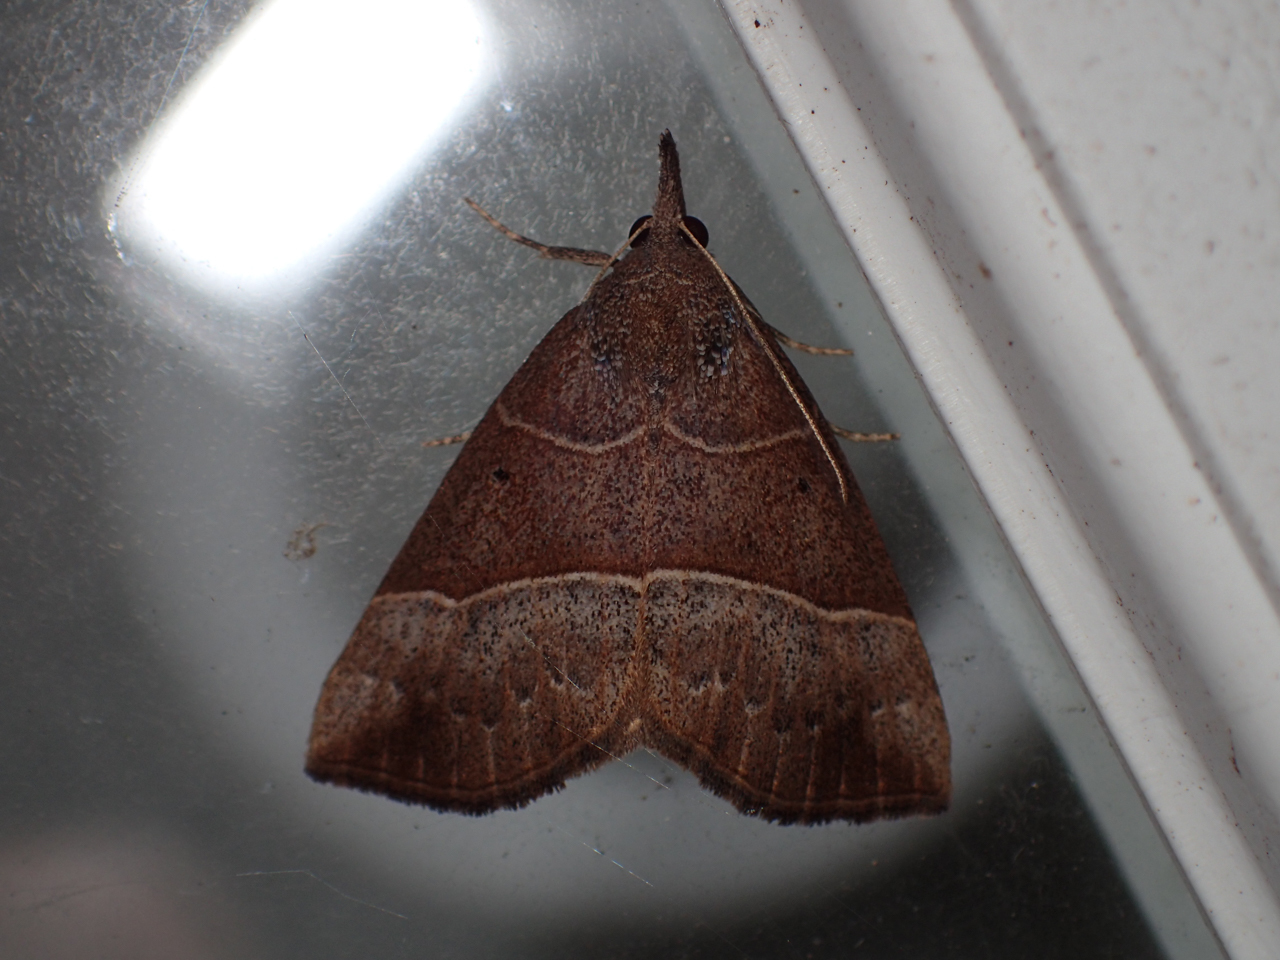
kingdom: Animalia
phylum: Arthropoda
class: Insecta
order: Lepidoptera
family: Erebidae
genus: Hypena
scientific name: Hypena deceptalis
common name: Deceptive snout
